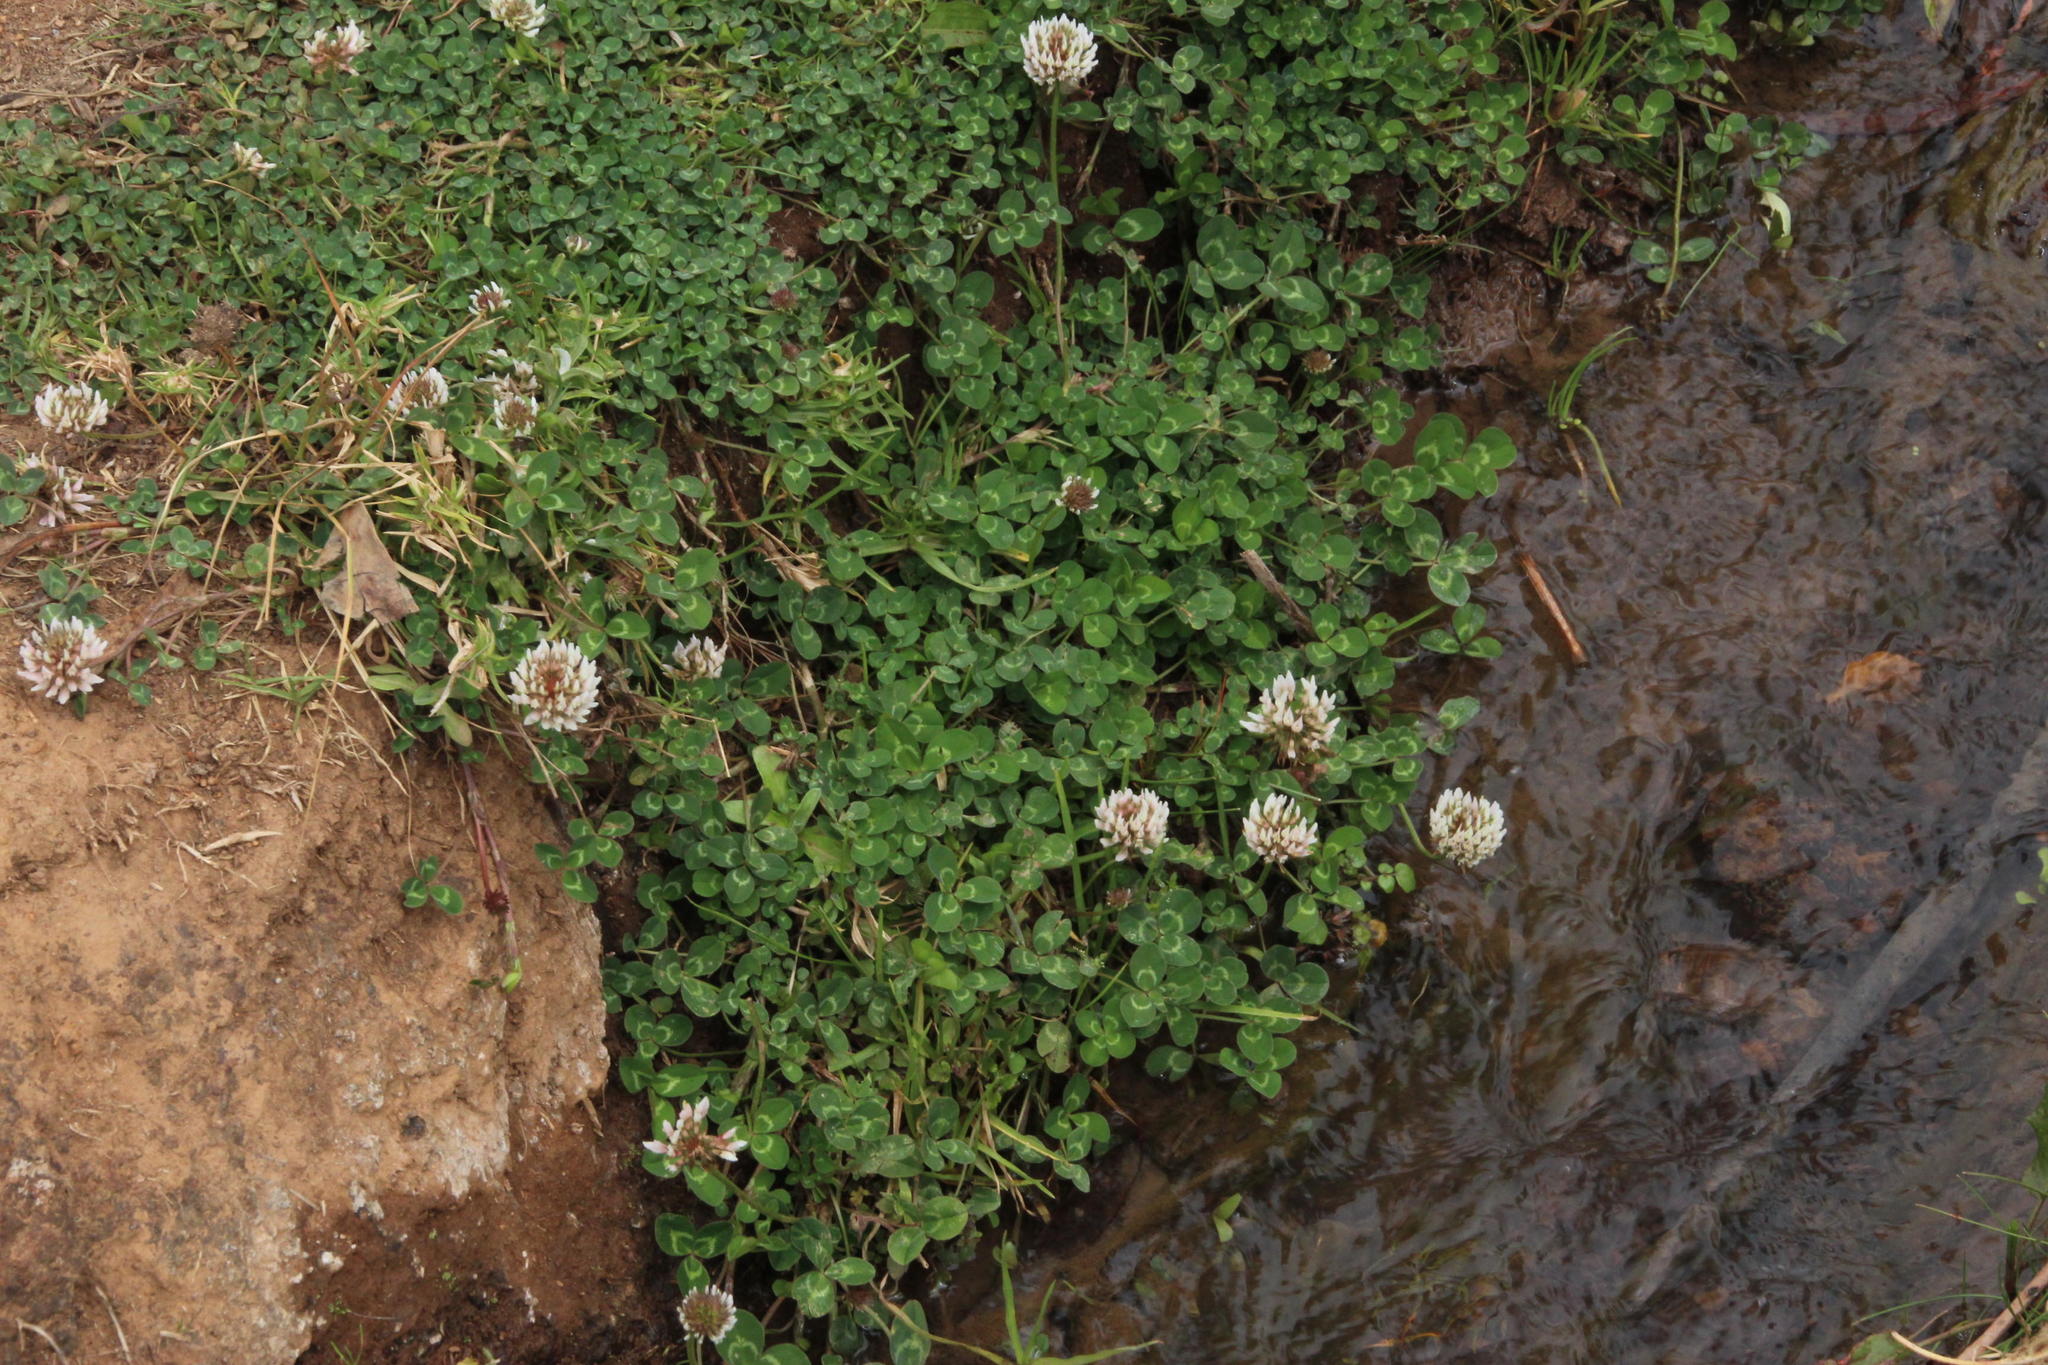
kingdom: Plantae
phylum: Tracheophyta
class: Magnoliopsida
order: Fabales
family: Fabaceae
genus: Trifolium
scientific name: Trifolium repens
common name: White clover
